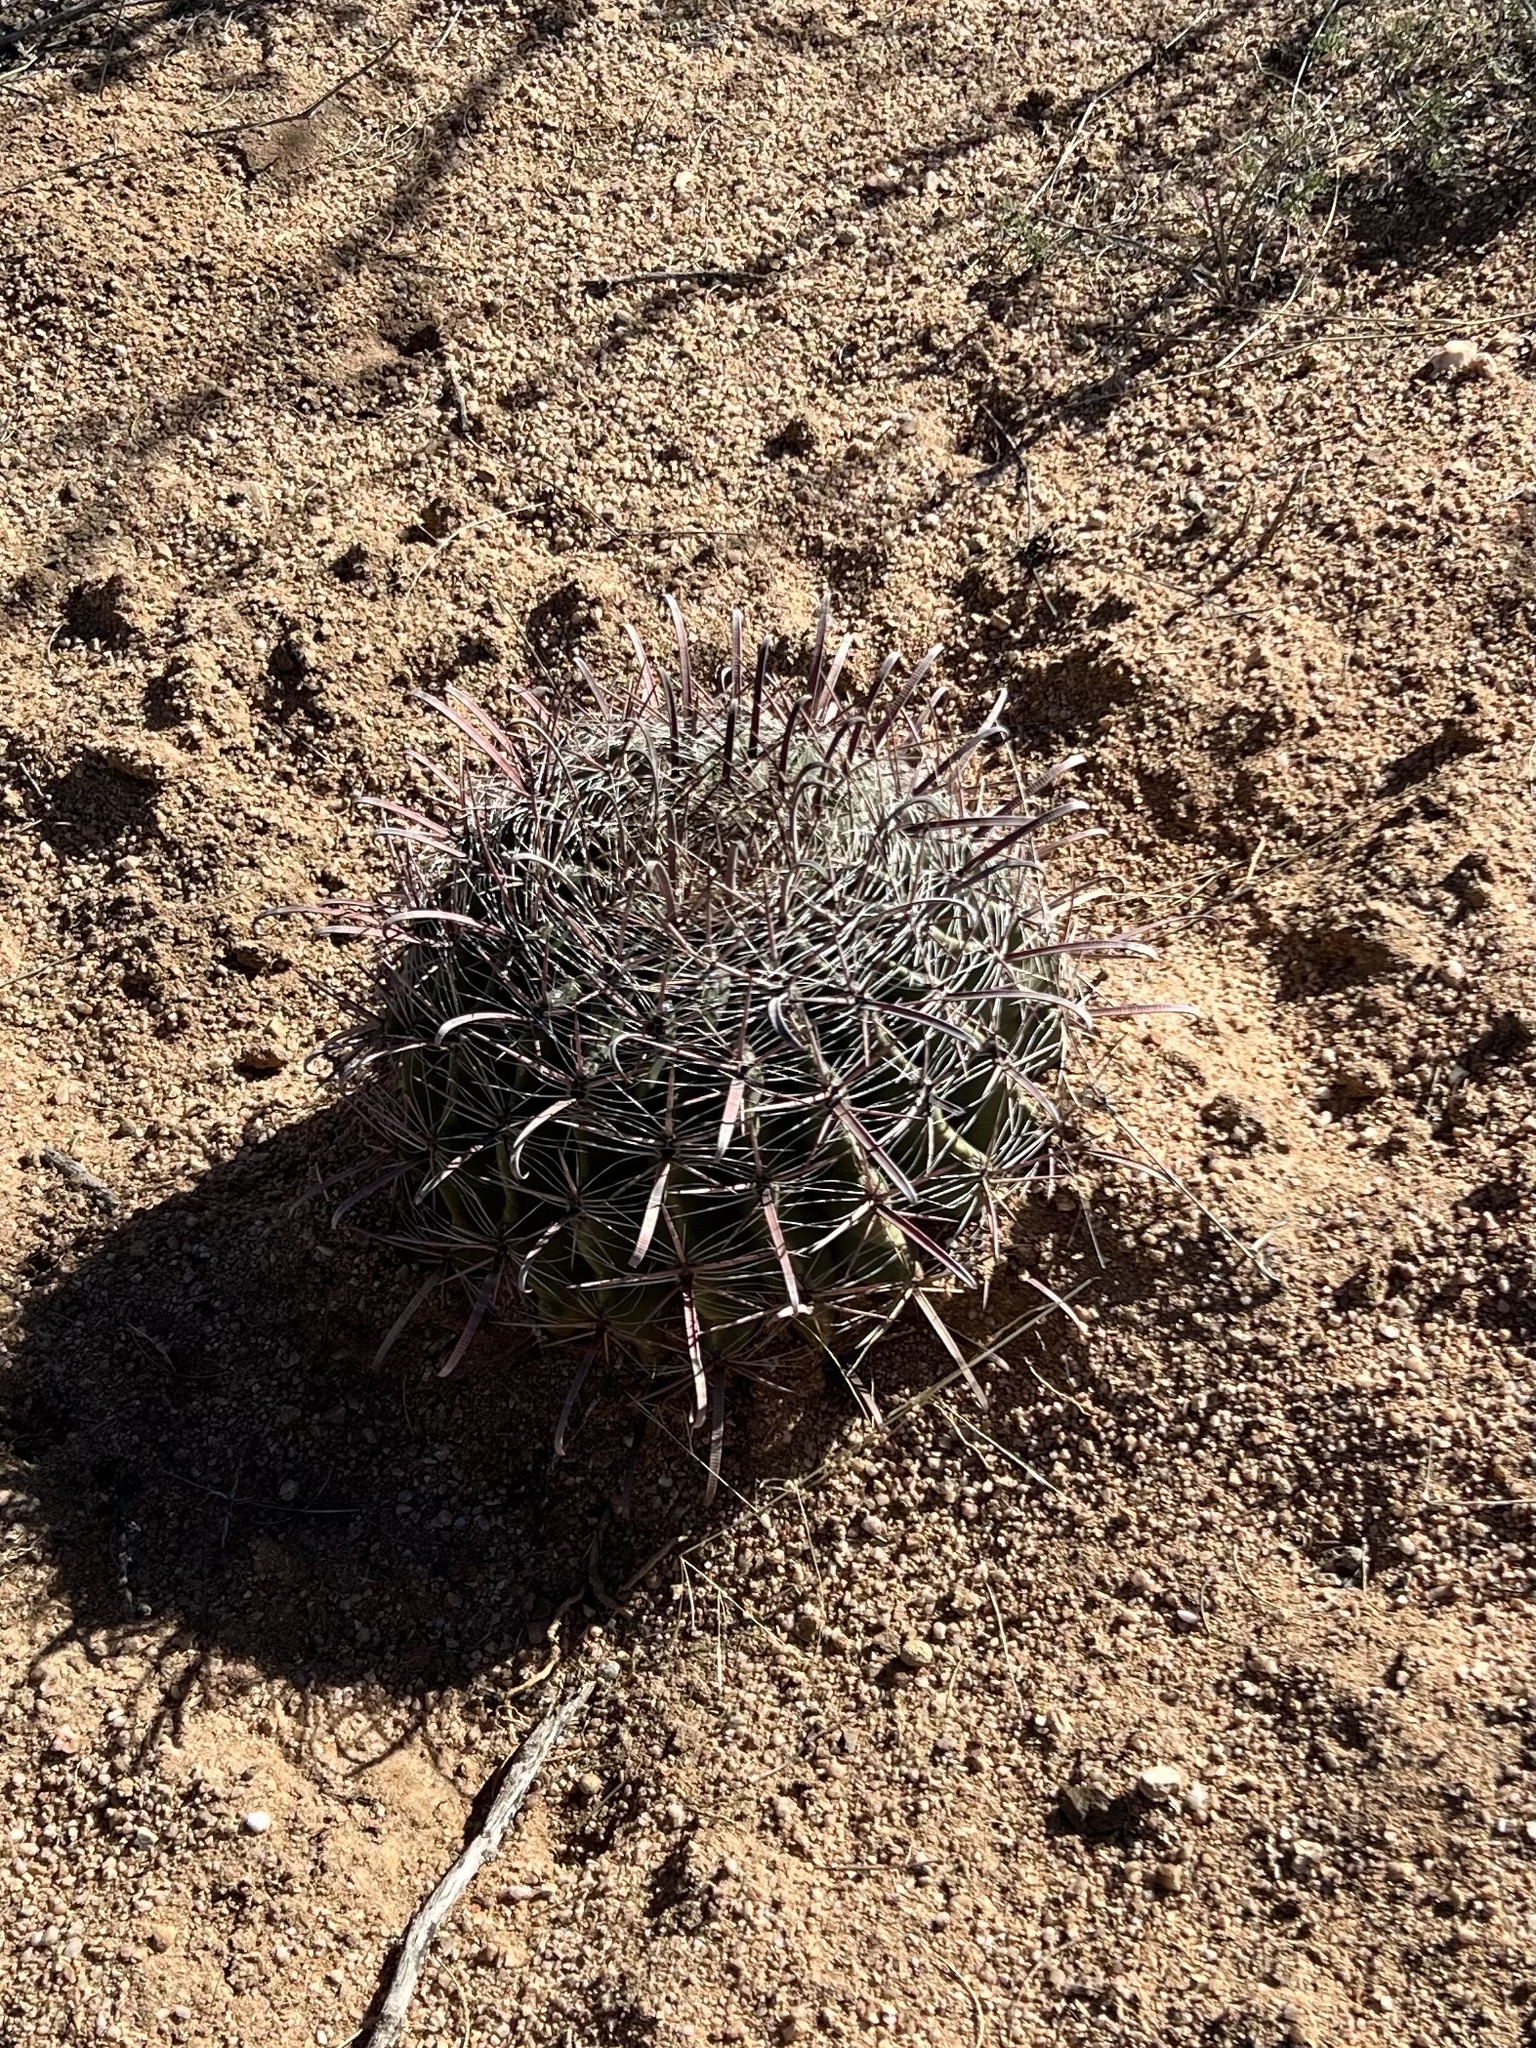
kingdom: Plantae
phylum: Tracheophyta
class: Magnoliopsida
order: Caryophyllales
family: Cactaceae
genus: Ferocactus
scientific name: Ferocactus wislizeni
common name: Candy barrel cactus
